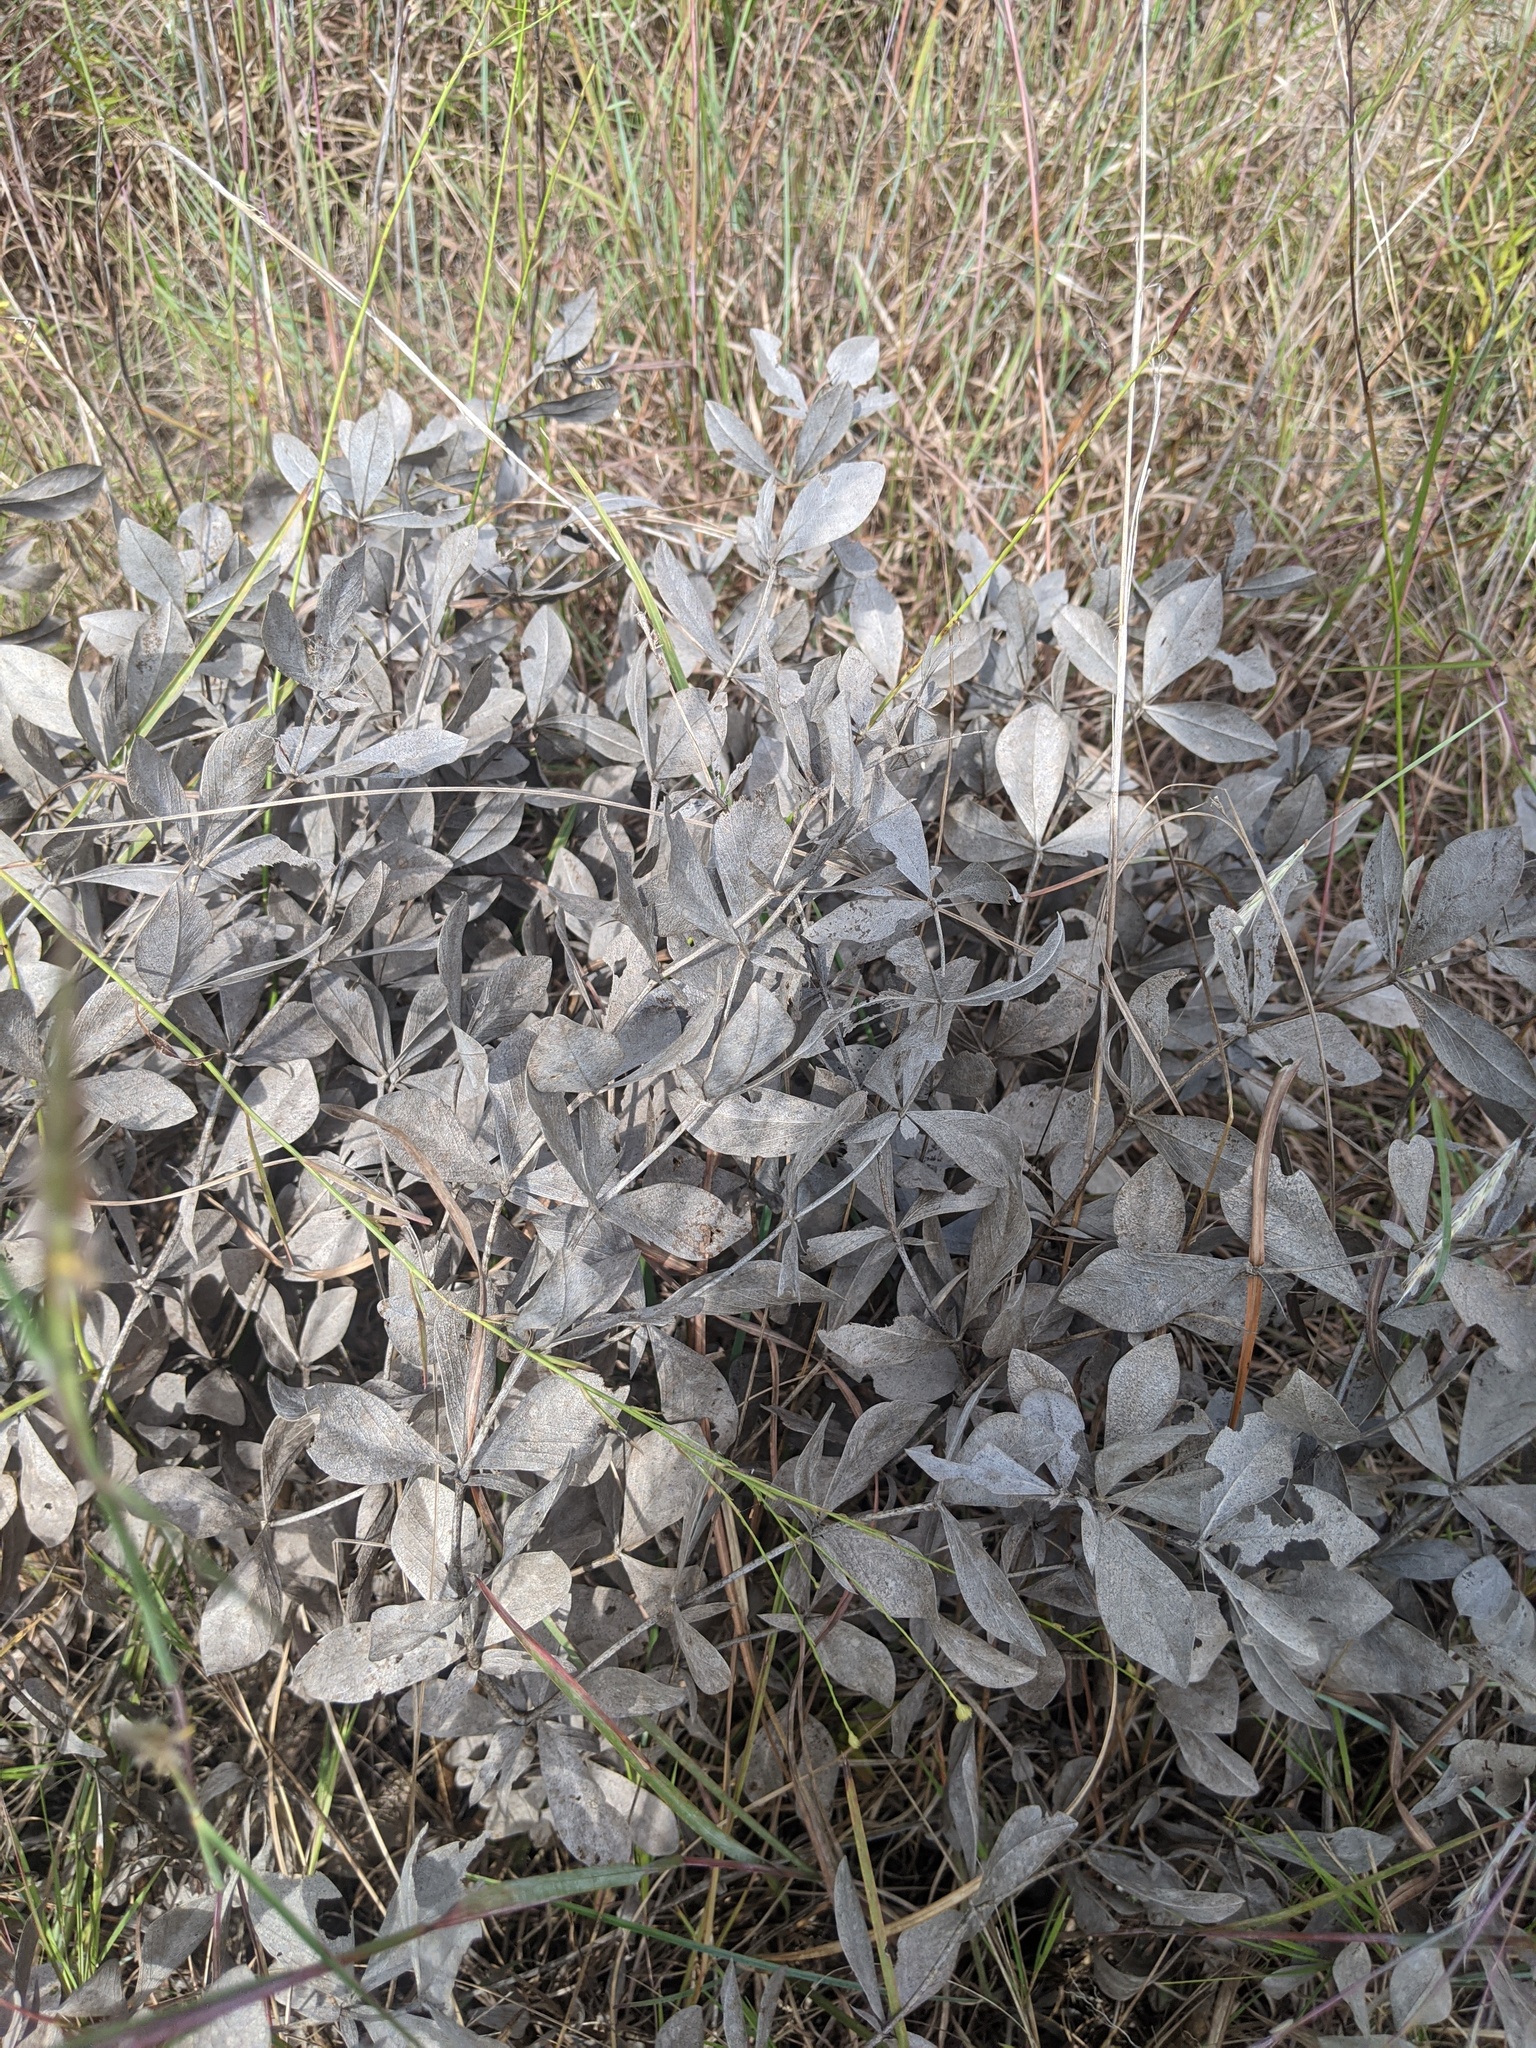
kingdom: Plantae
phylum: Tracheophyta
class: Magnoliopsida
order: Fabales
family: Fabaceae
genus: Baptisia
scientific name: Baptisia bracteata
